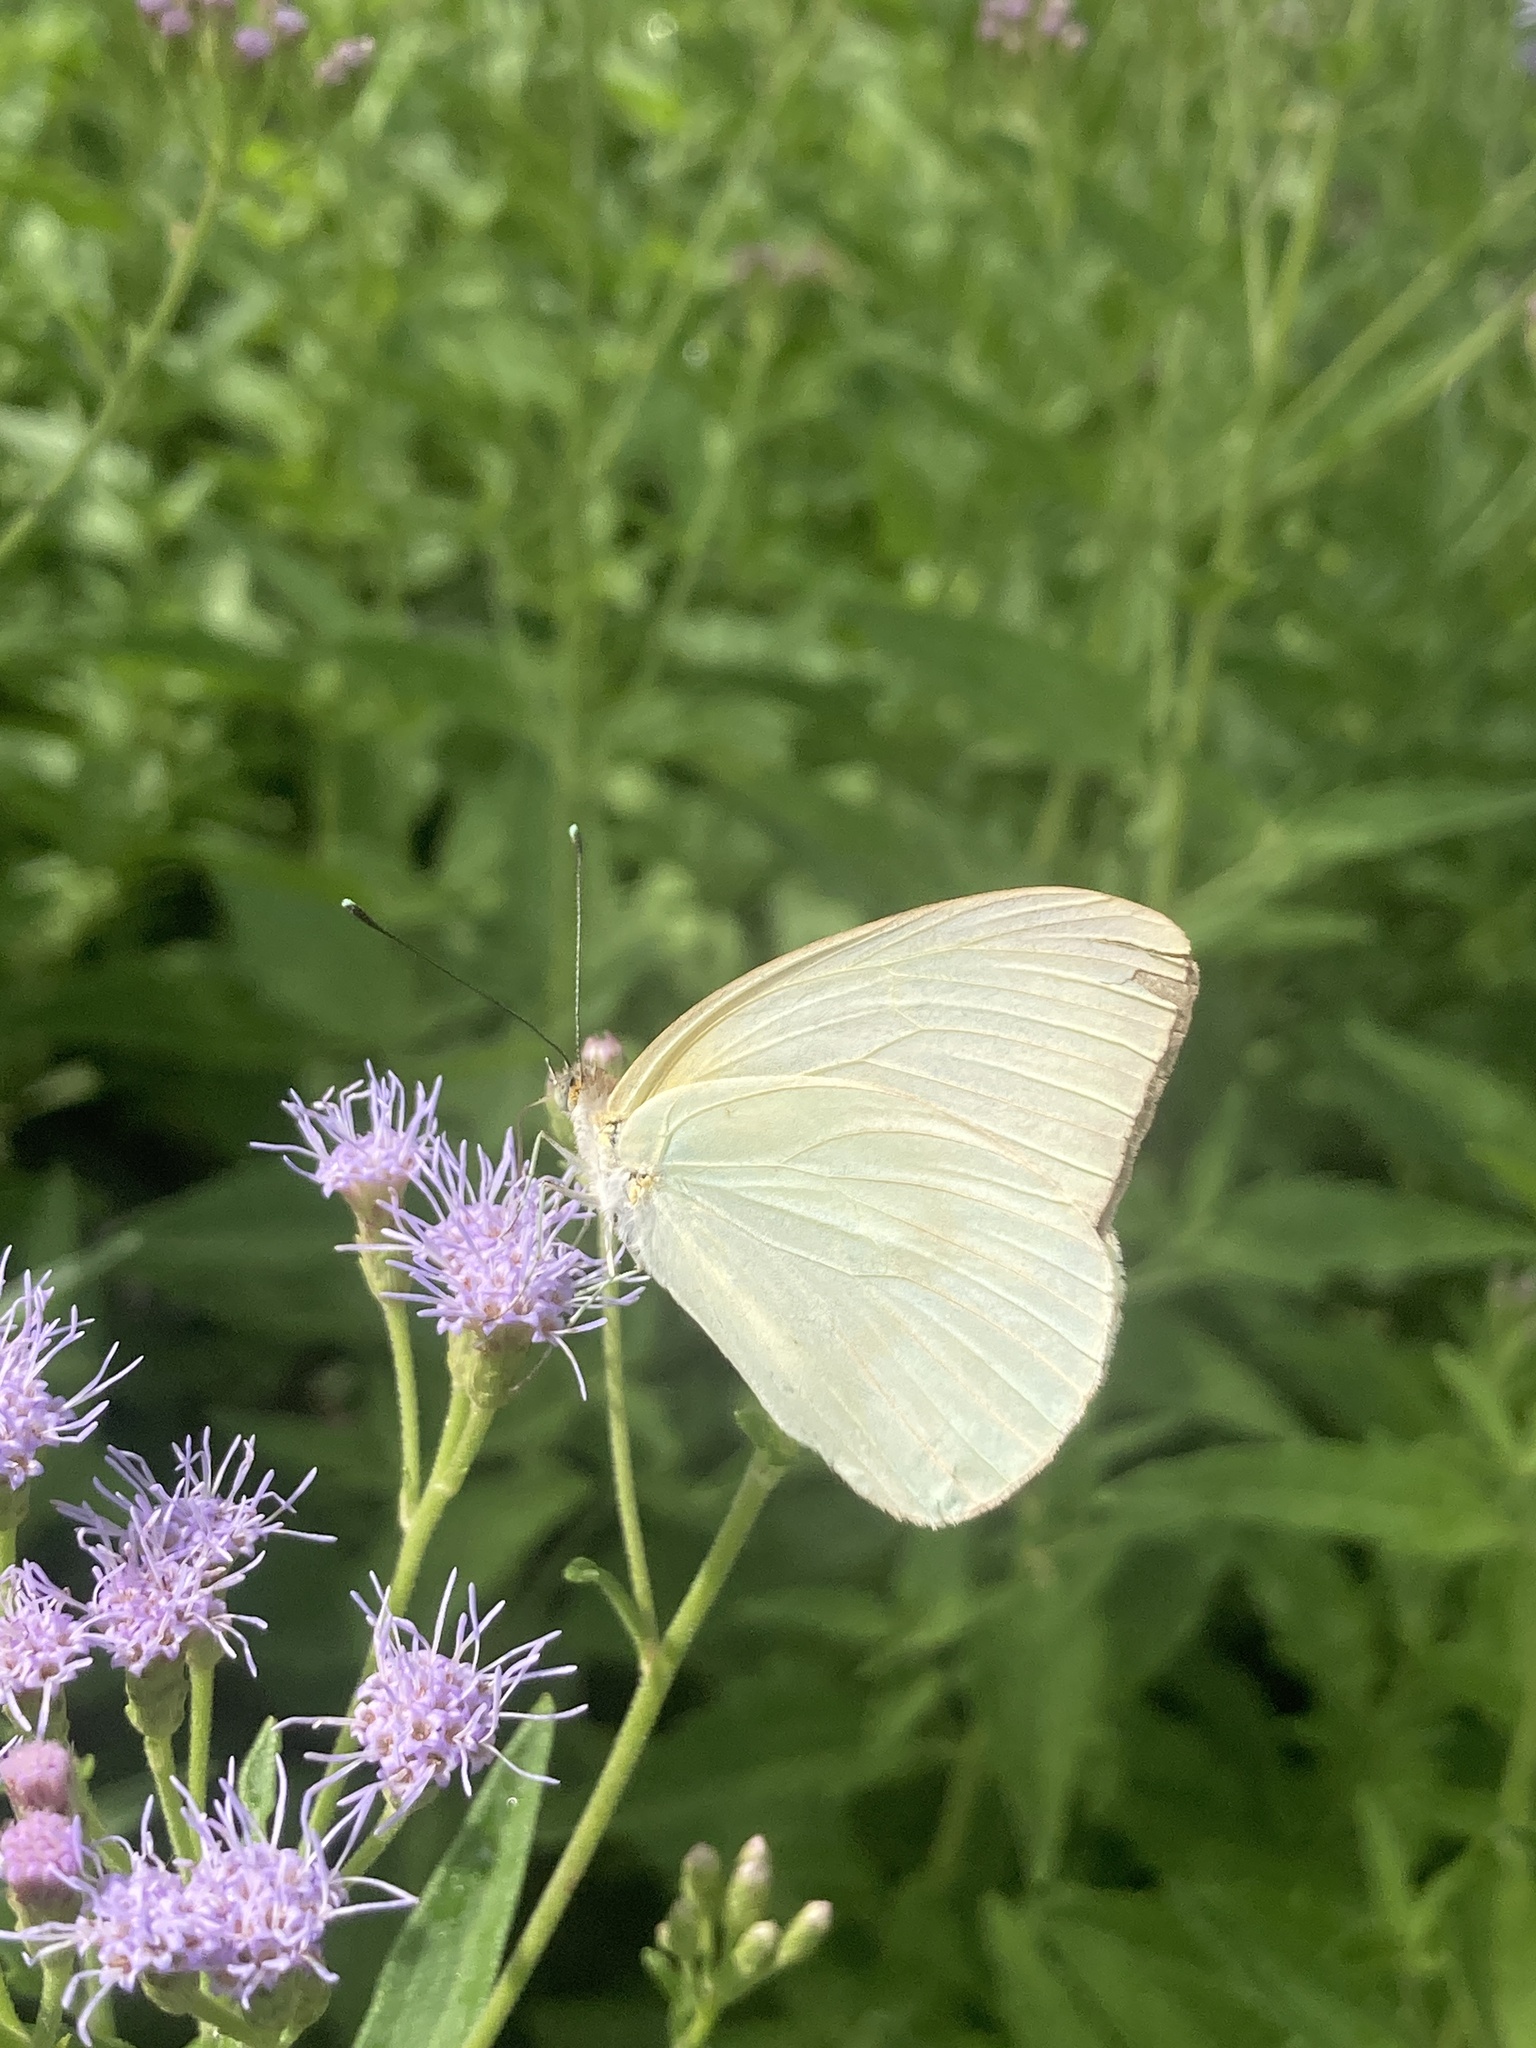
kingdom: Animalia
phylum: Arthropoda
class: Insecta
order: Lepidoptera
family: Pieridae
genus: Ascia
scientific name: Ascia monuste
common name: Great southern white
